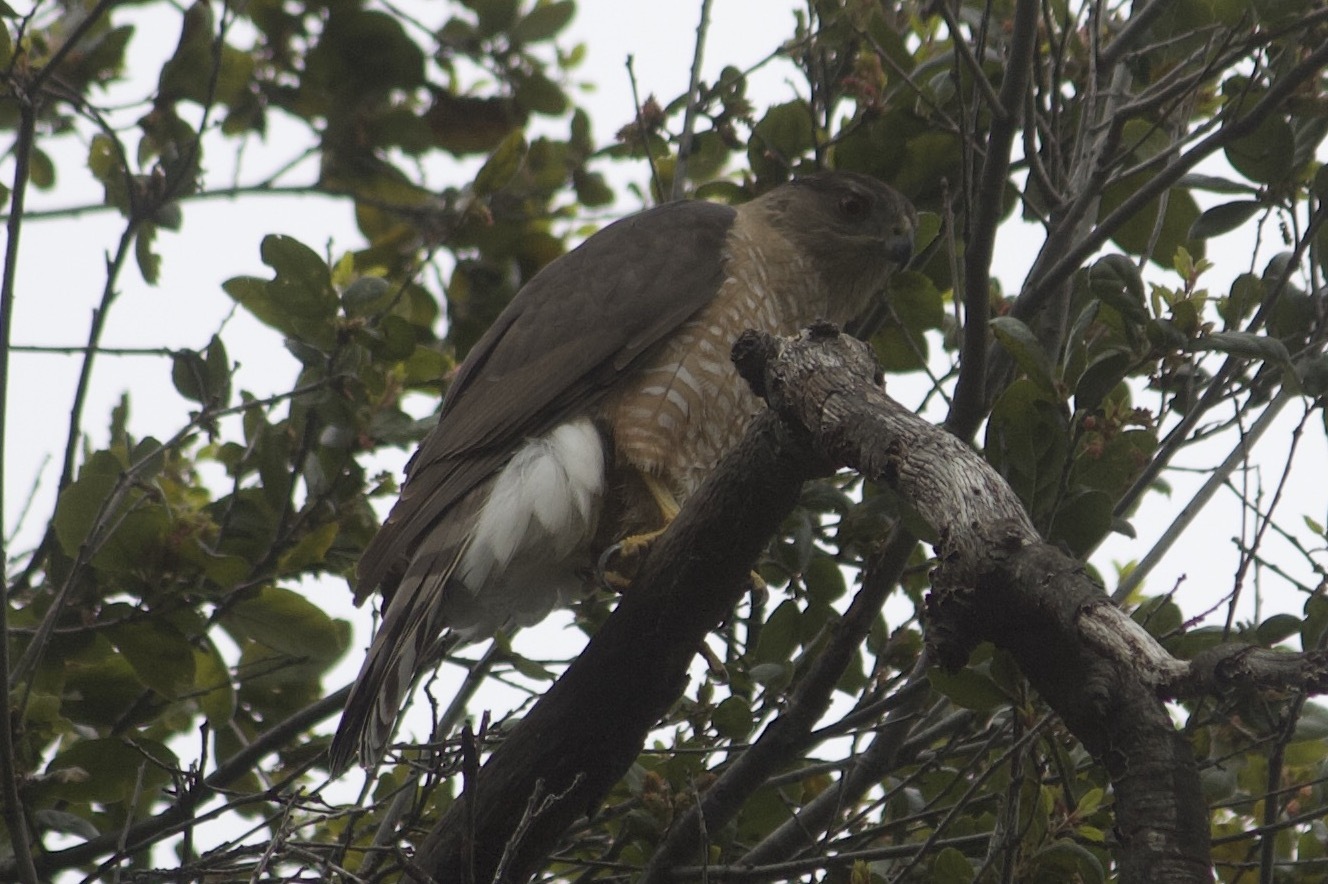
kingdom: Animalia
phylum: Chordata
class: Aves
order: Accipitriformes
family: Accipitridae
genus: Accipiter
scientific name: Accipiter cooperii
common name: Cooper's hawk
